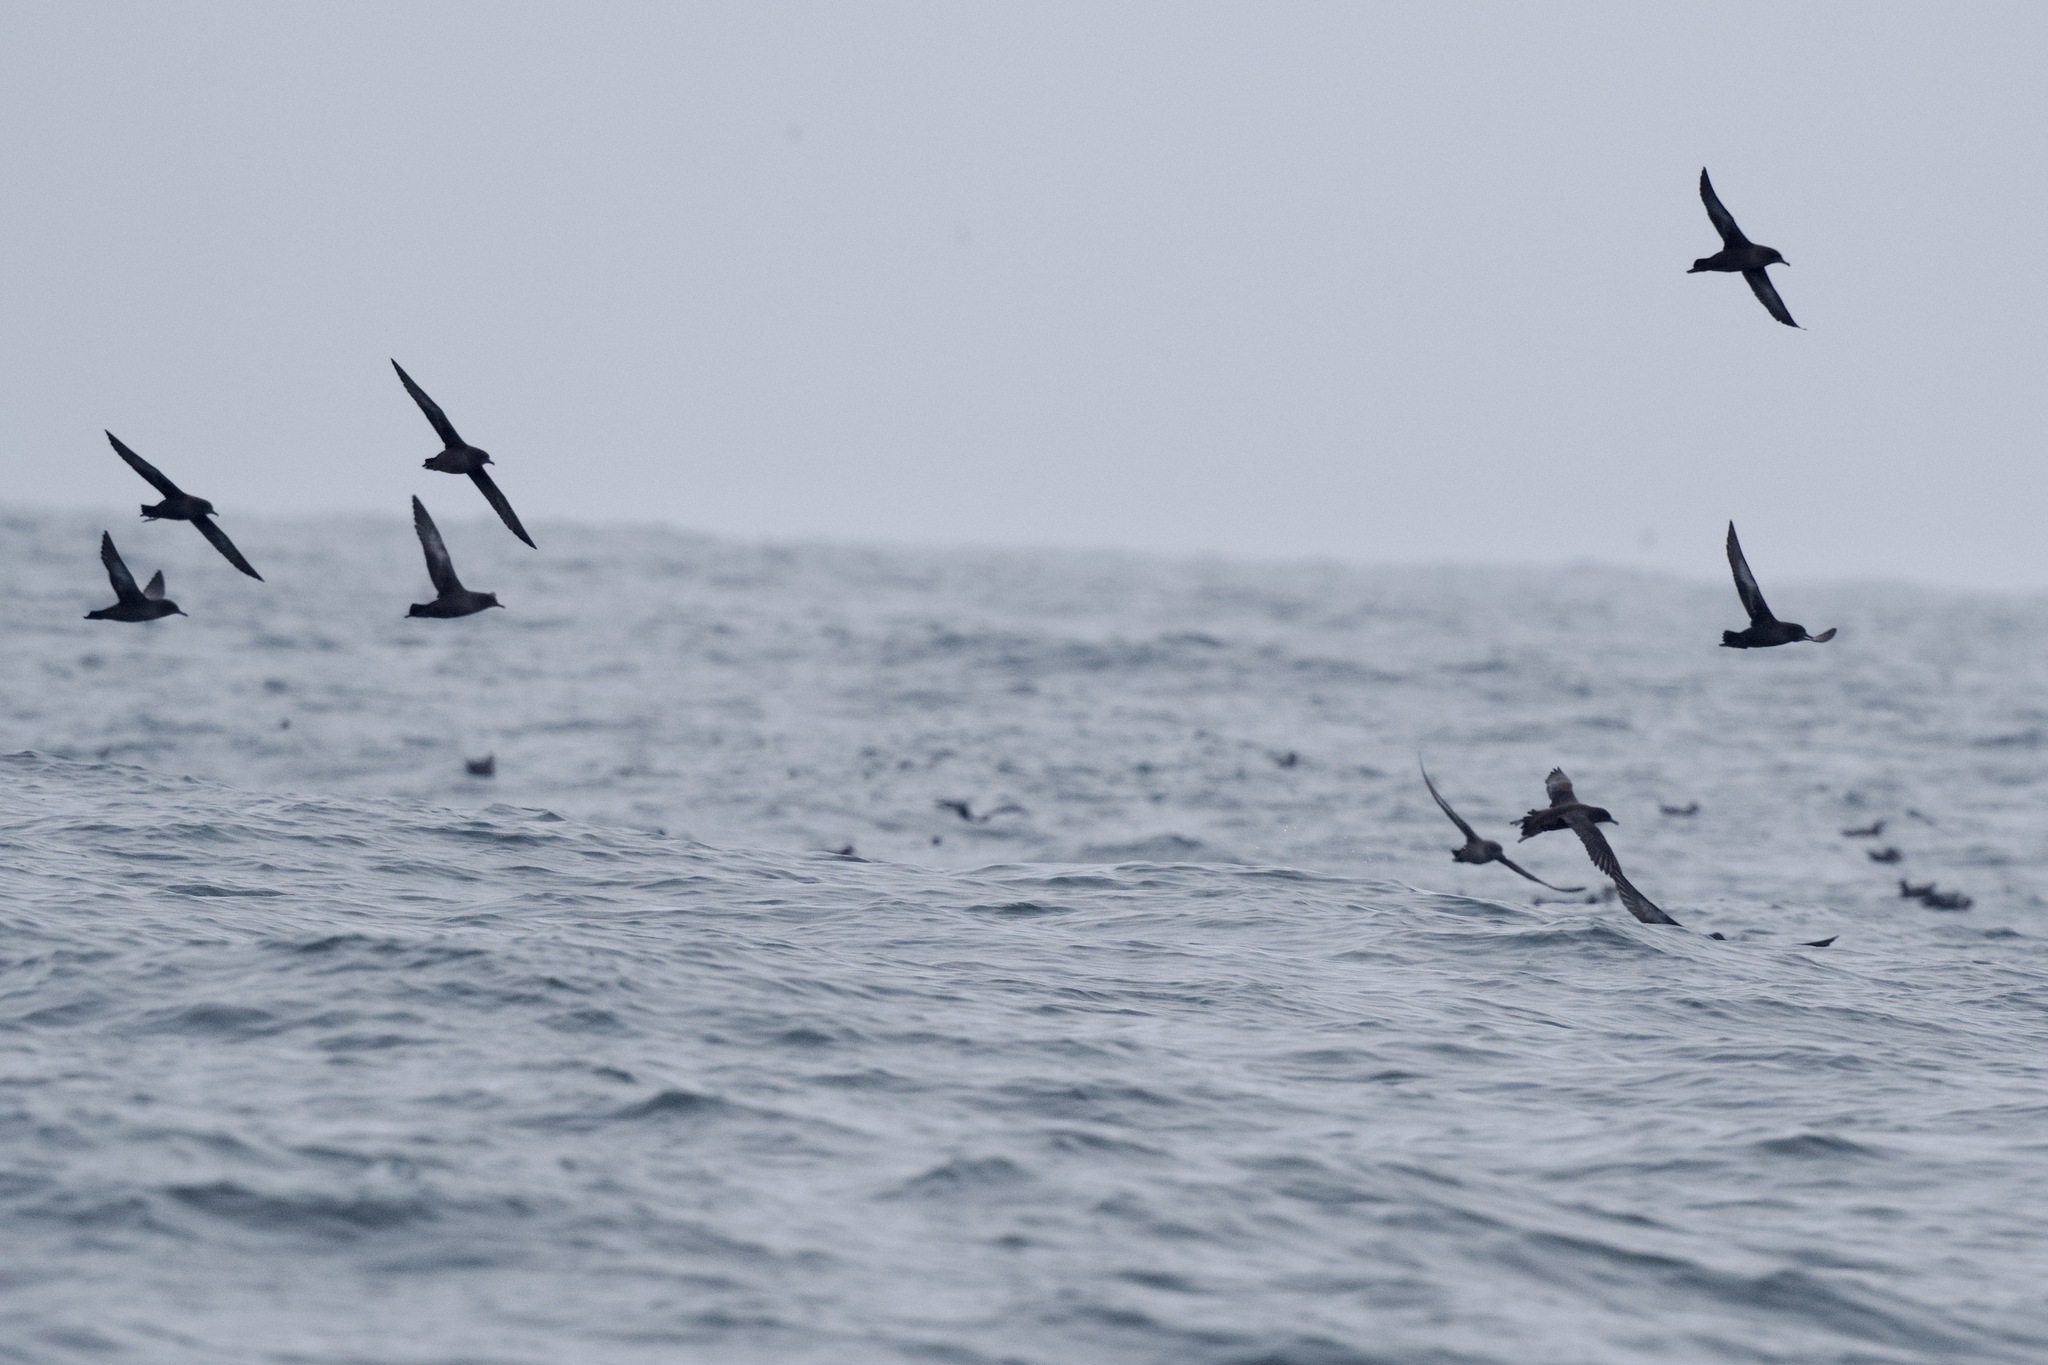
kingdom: Animalia
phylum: Chordata
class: Aves
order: Procellariiformes
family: Procellariidae
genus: Puffinus
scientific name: Puffinus griseus
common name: Sooty shearwater
